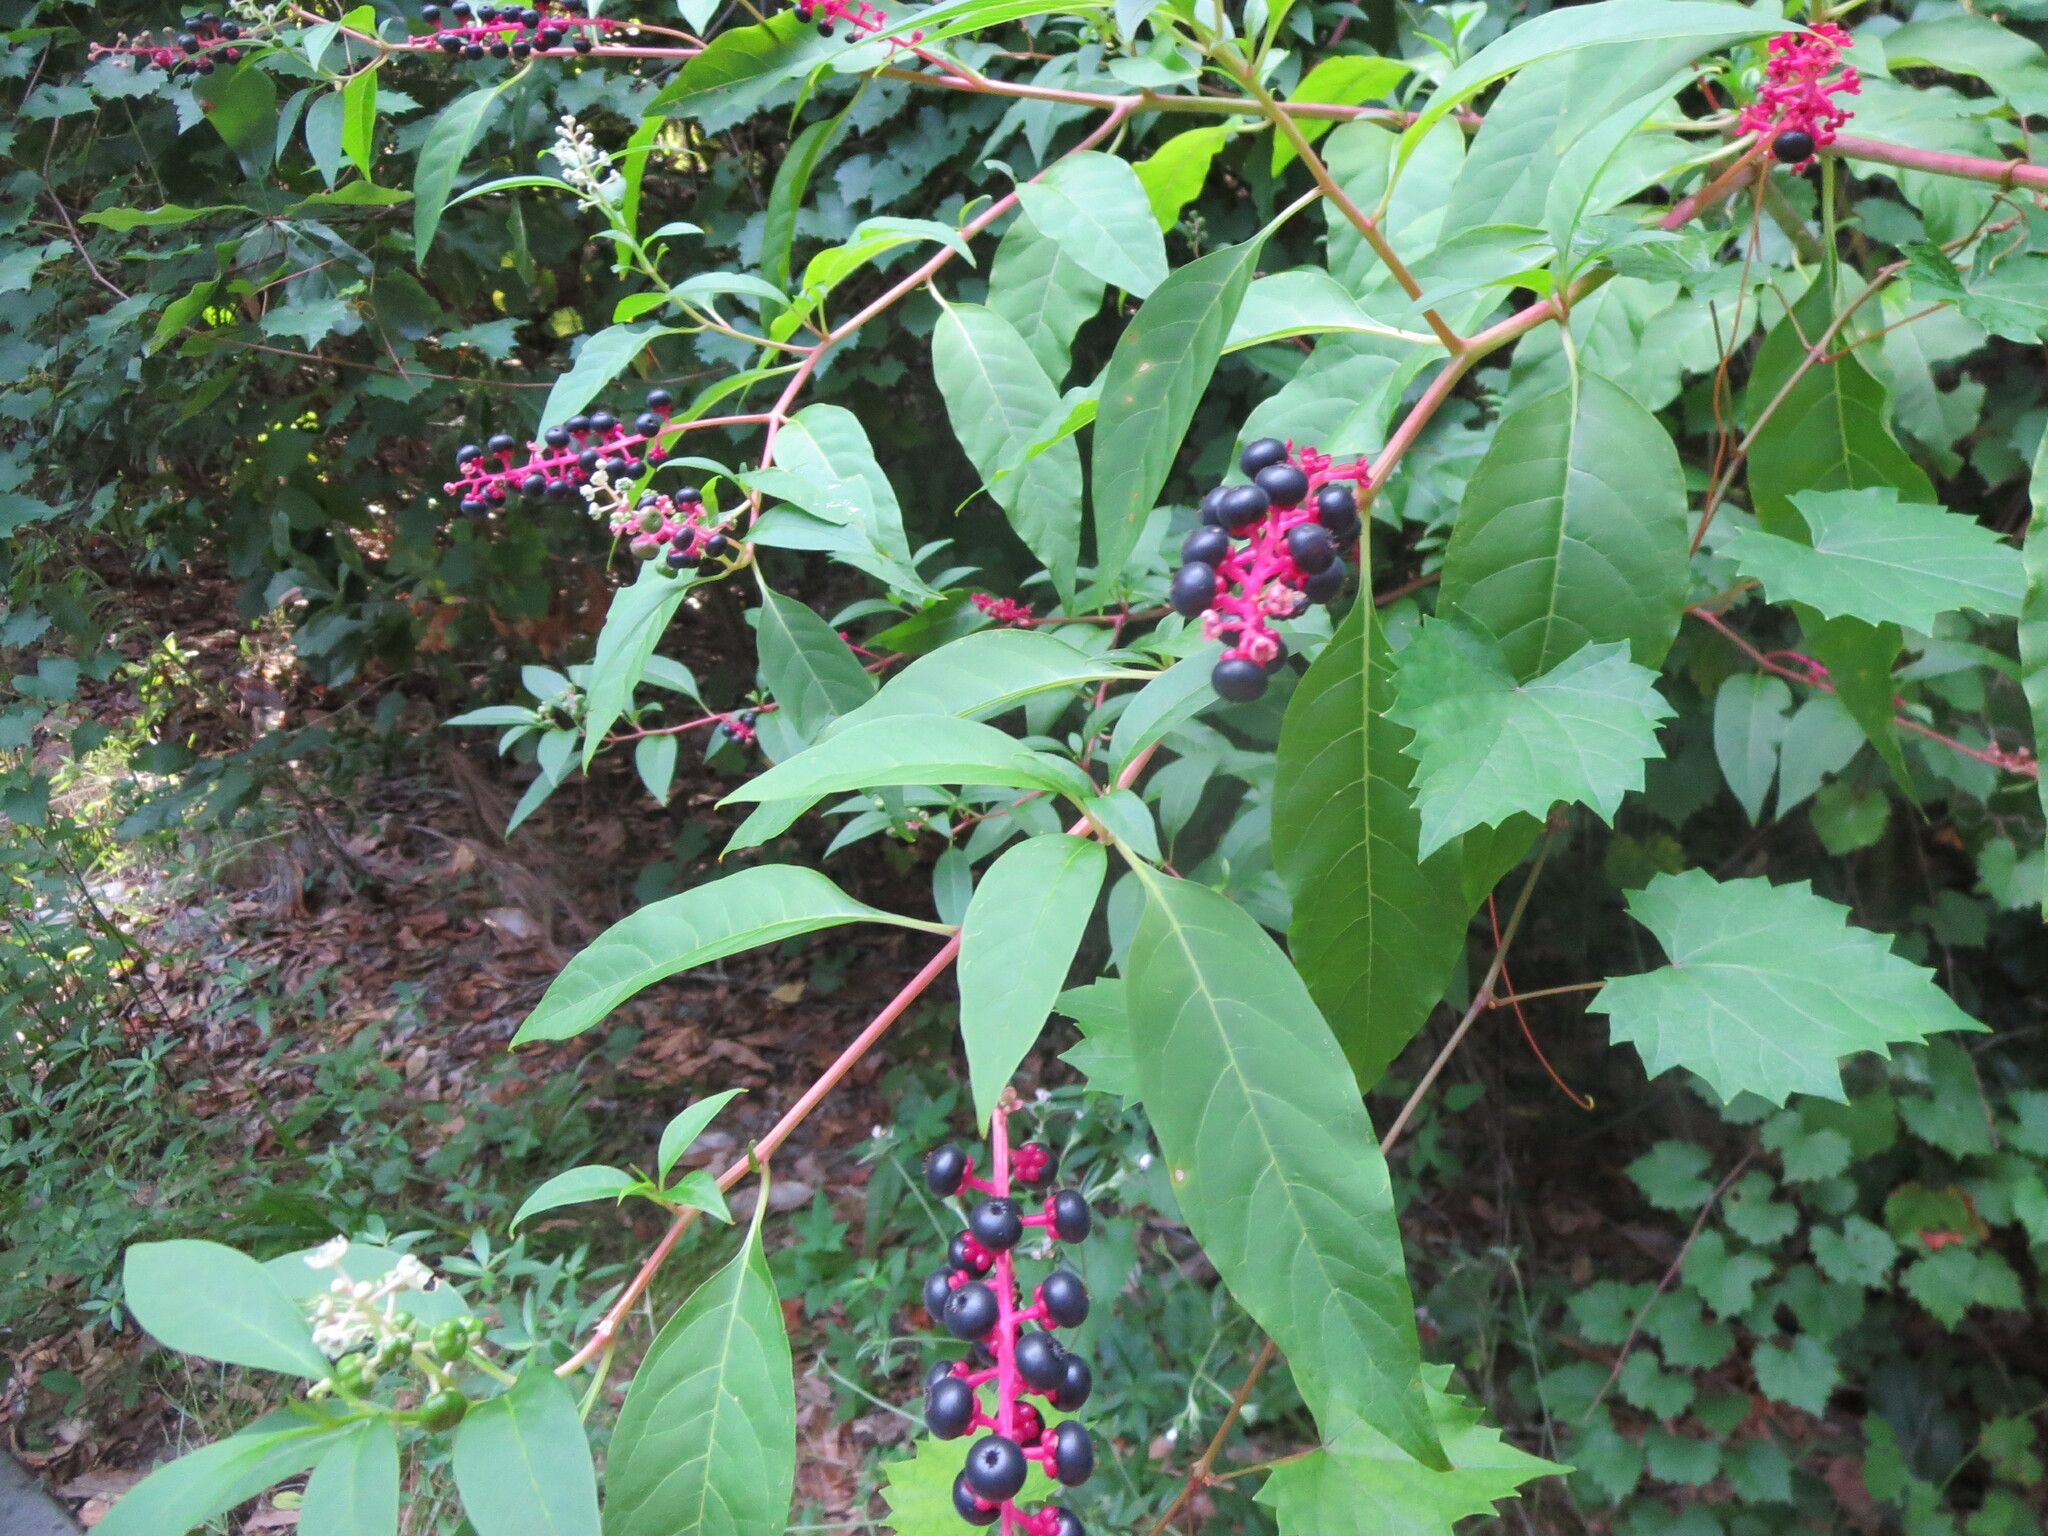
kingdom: Plantae
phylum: Tracheophyta
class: Magnoliopsida
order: Caryophyllales
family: Phytolaccaceae
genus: Phytolacca
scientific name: Phytolacca americana
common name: American pokeweed
